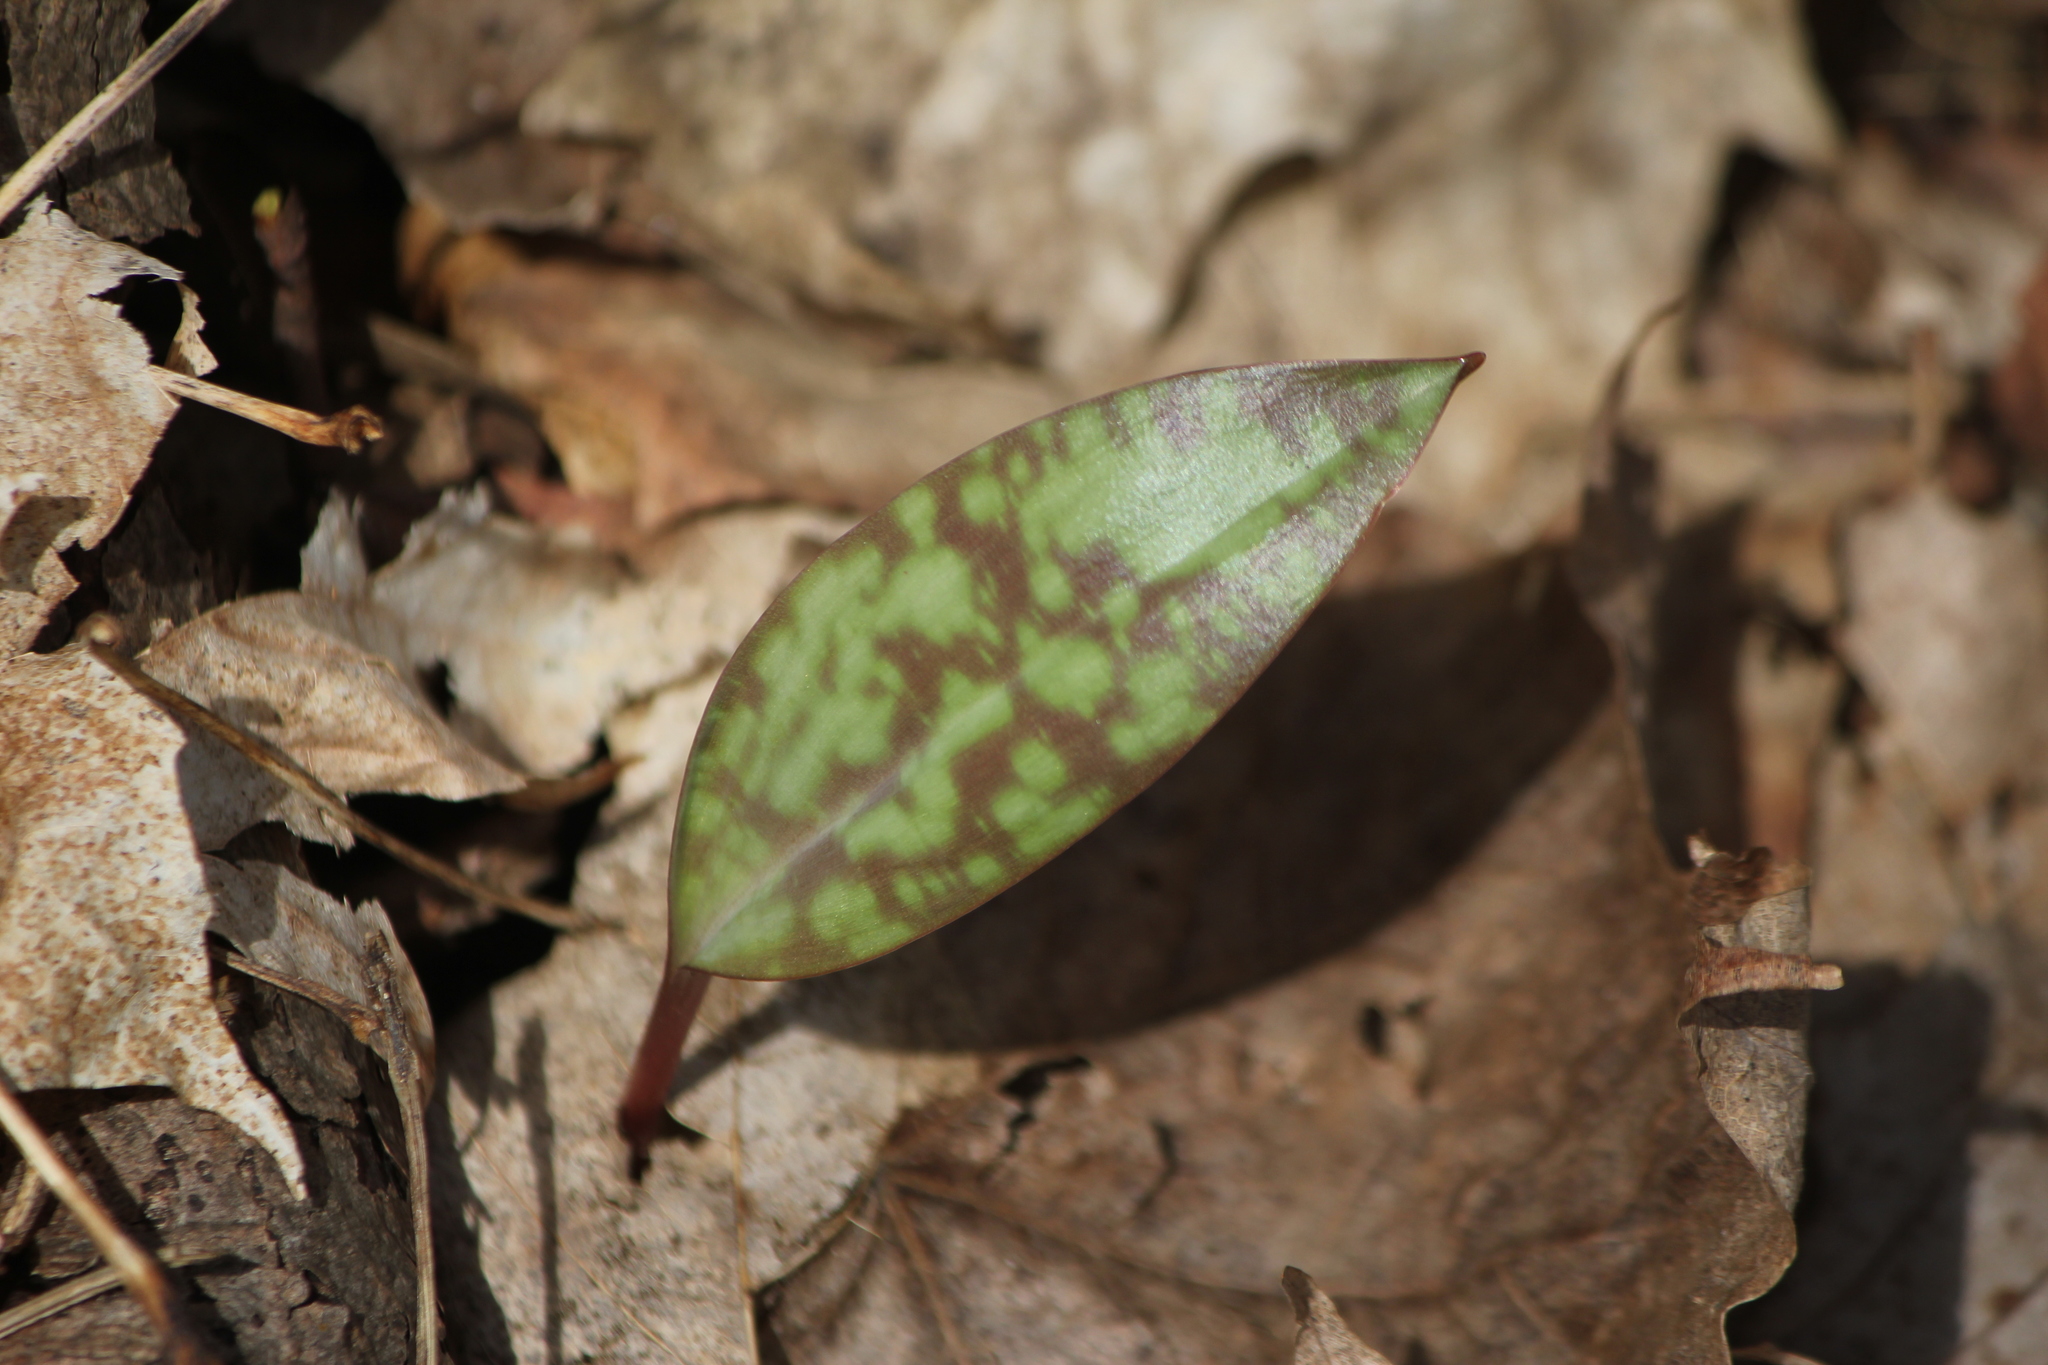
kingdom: Plantae
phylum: Tracheophyta
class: Liliopsida
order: Liliales
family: Liliaceae
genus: Erythronium
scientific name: Erythronium
